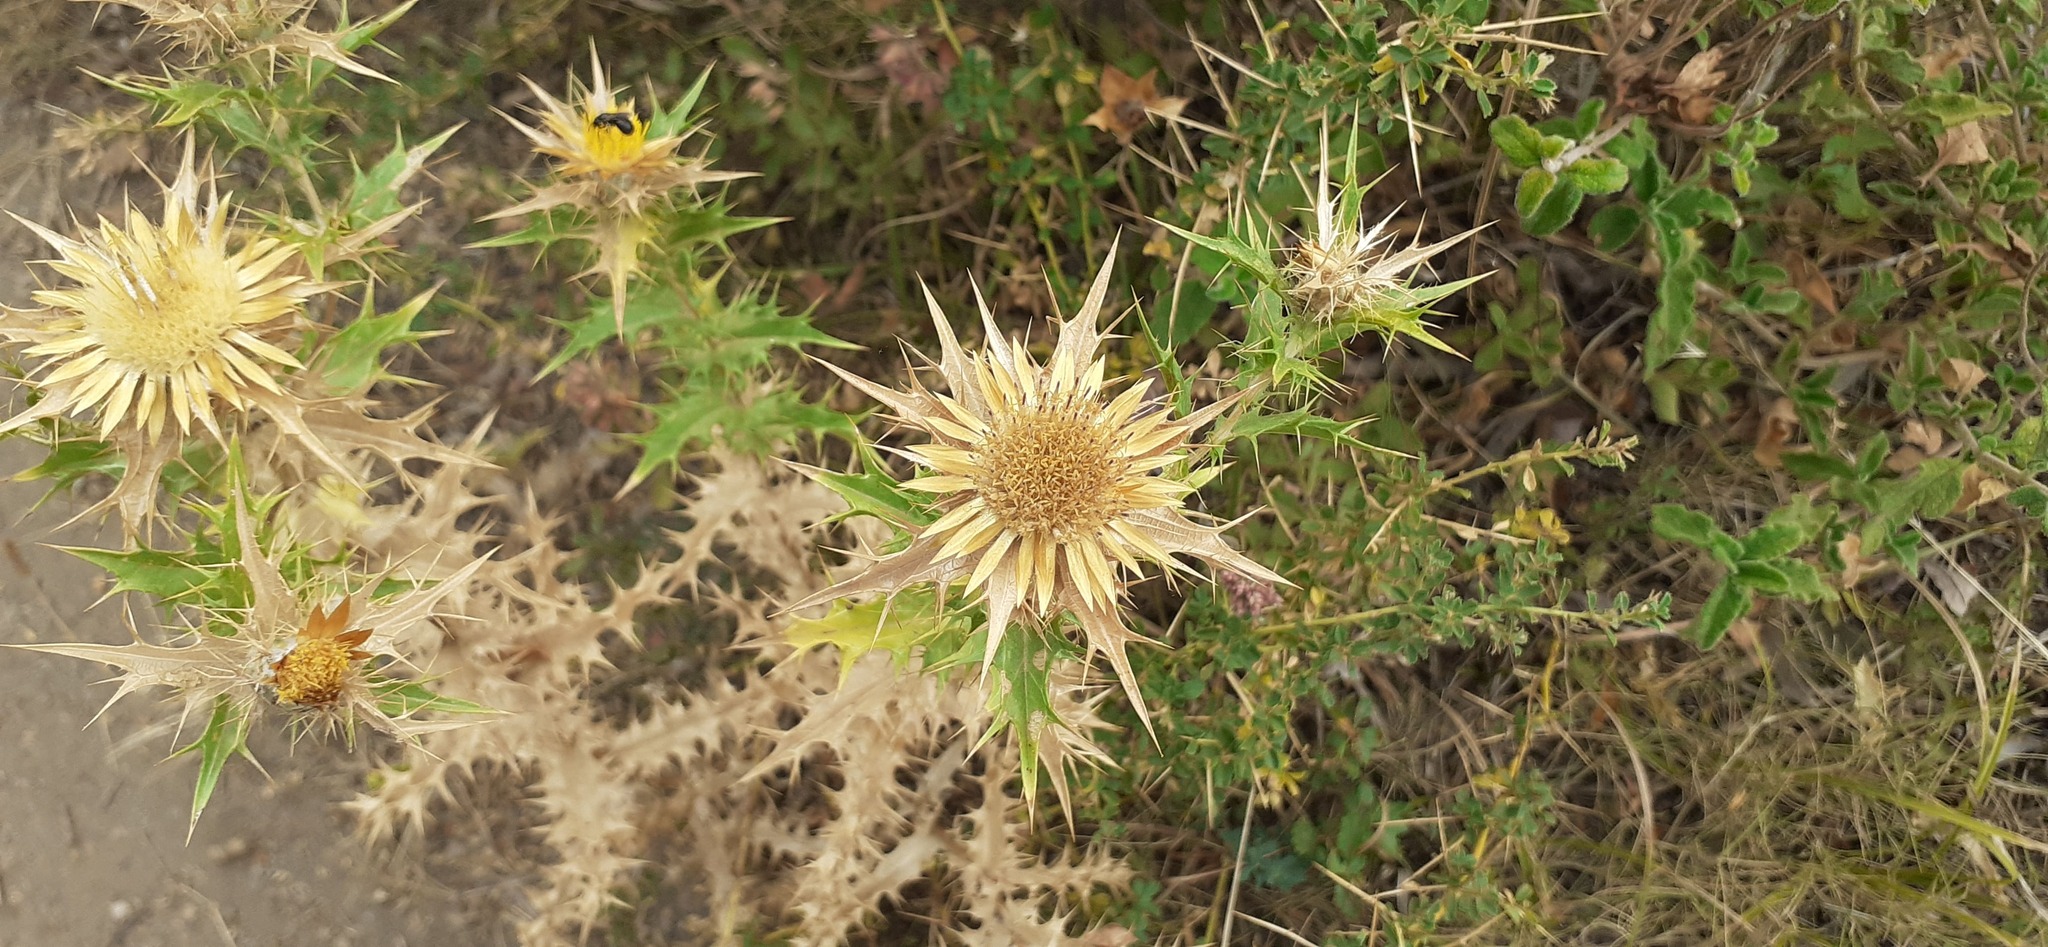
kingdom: Plantae
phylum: Tracheophyta
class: Magnoliopsida
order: Asterales
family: Asteraceae
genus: Carlina
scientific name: Carlina corymbosa
